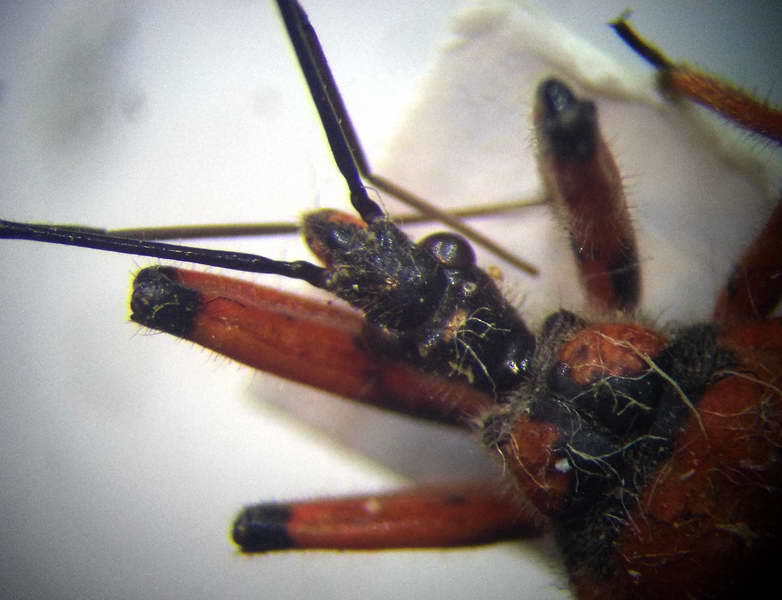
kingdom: Animalia
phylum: Arthropoda
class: Insecta
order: Hemiptera
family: Reduviidae
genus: Rhynocoris
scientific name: Rhynocoris iracundus
